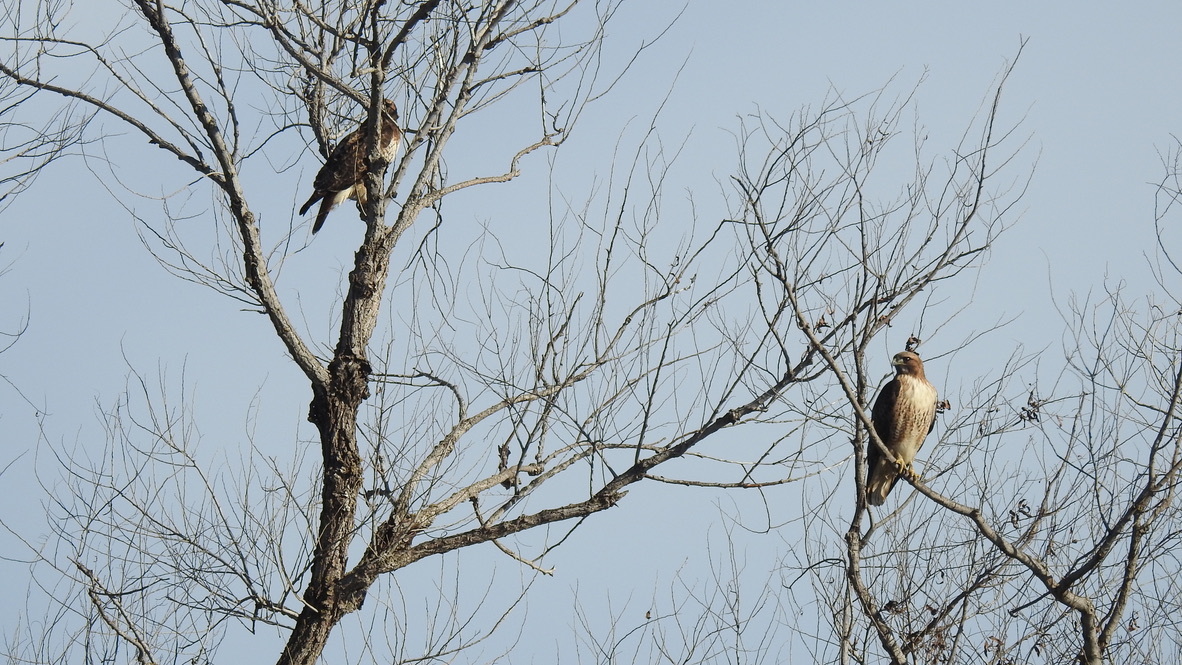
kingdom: Animalia
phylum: Chordata
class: Aves
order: Accipitriformes
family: Accipitridae
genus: Buteo
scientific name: Buteo jamaicensis
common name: Red-tailed hawk
